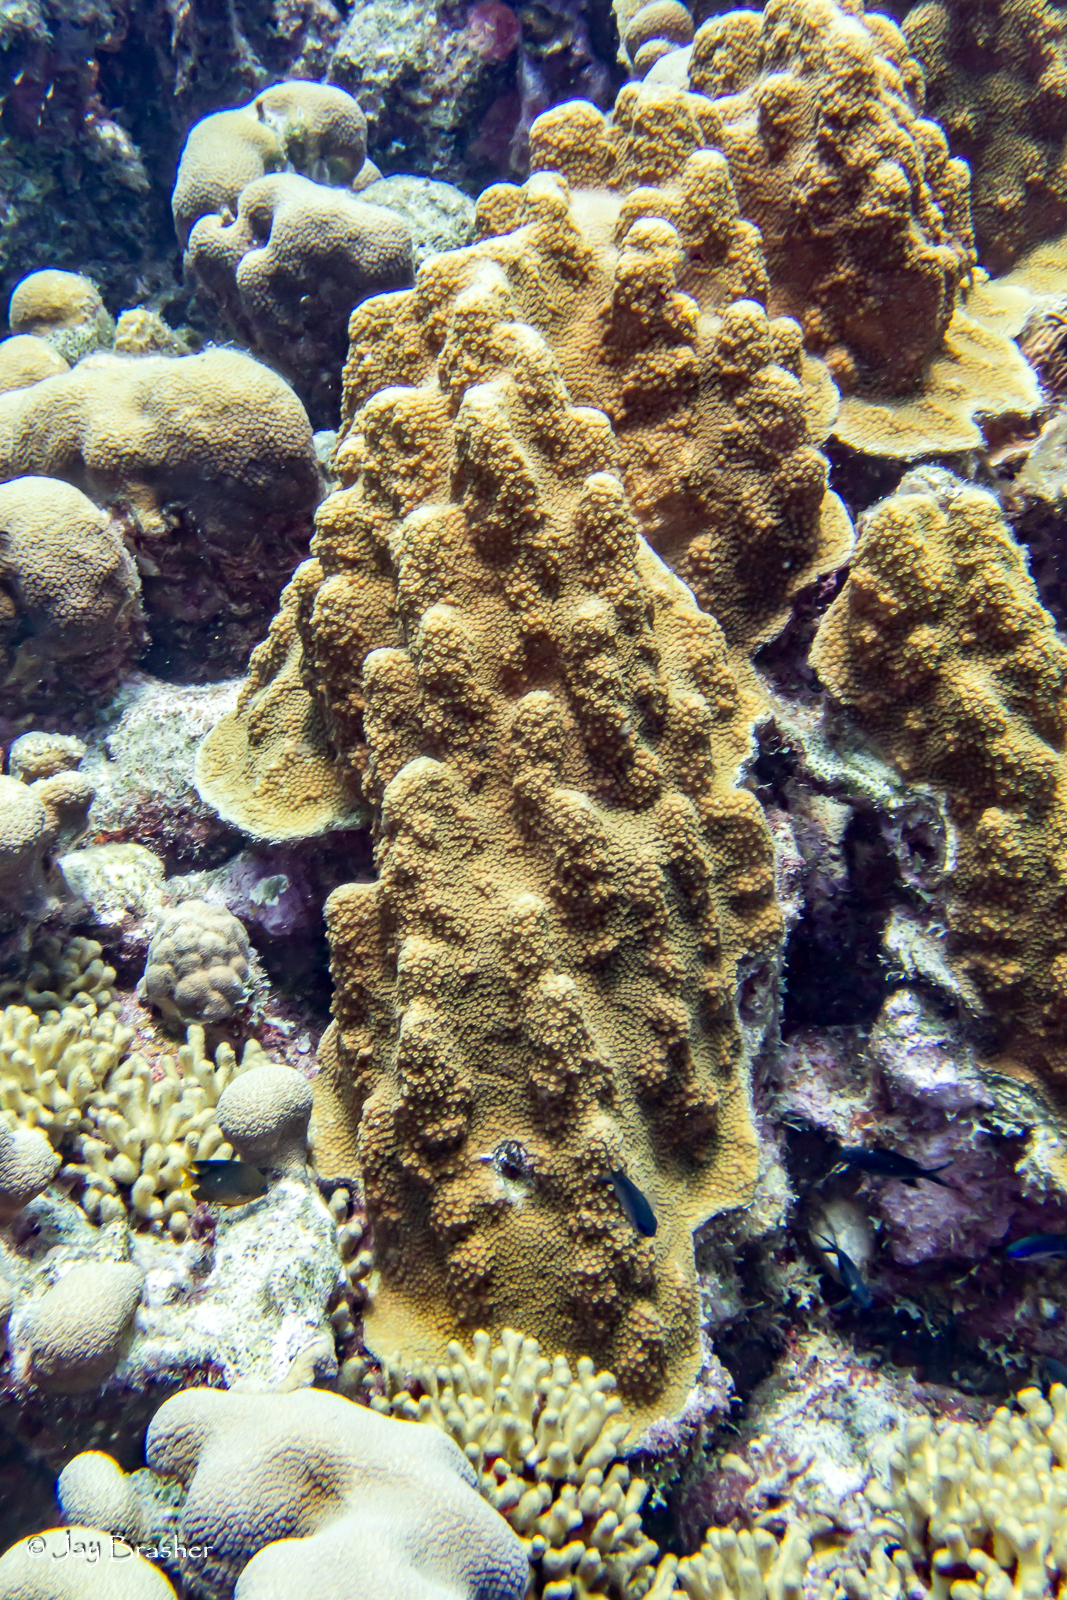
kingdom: Animalia
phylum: Cnidaria
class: Anthozoa
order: Scleractinia
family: Merulinidae
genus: Orbicella
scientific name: Orbicella faveolata
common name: Mountainous star coral
